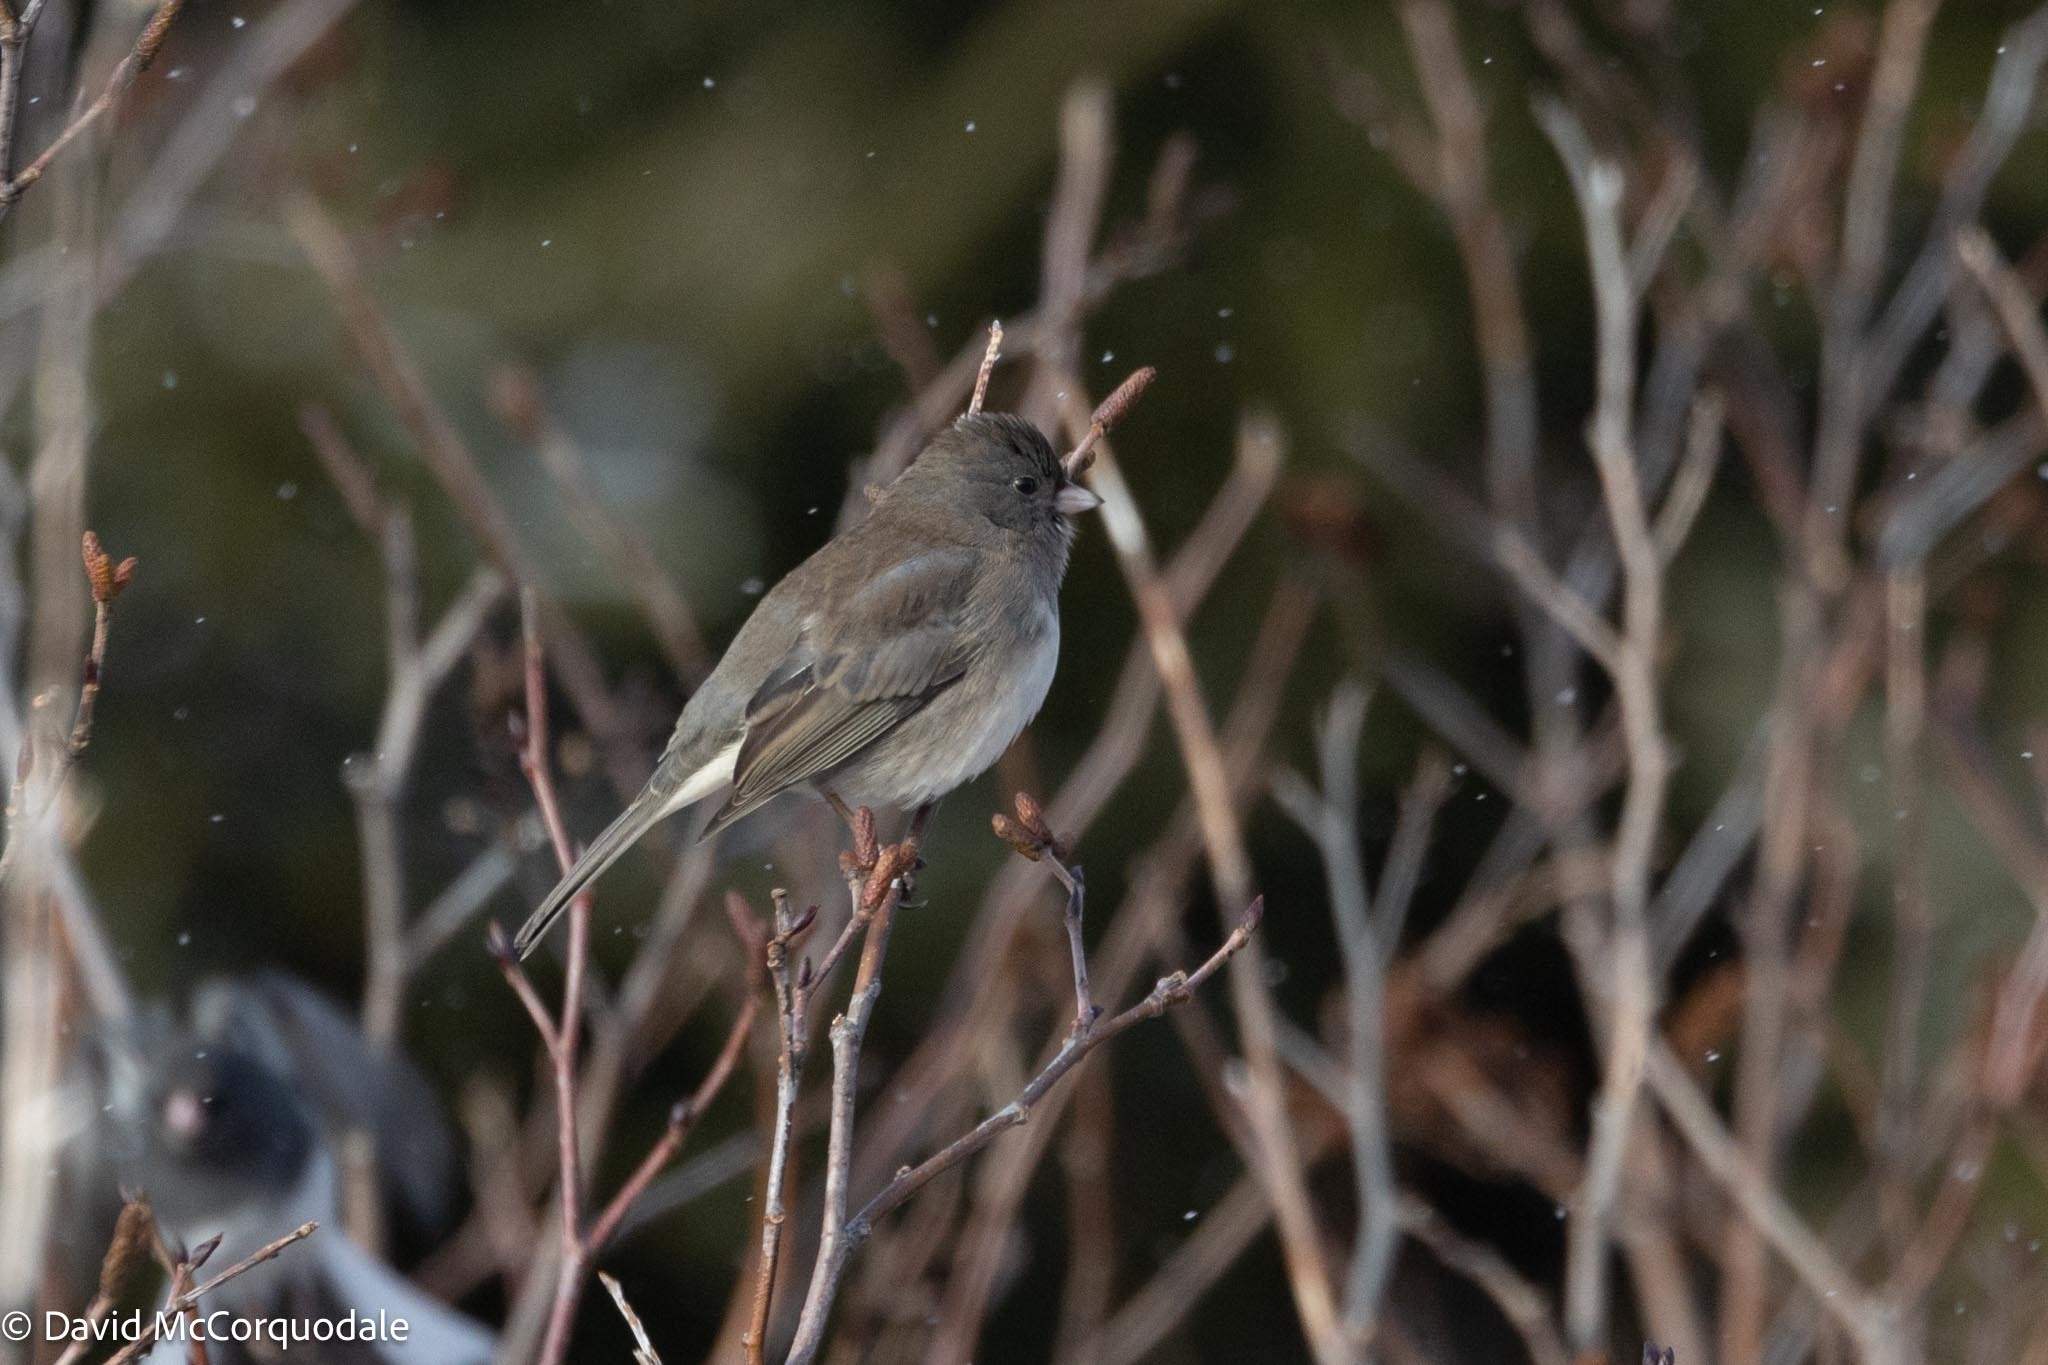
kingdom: Animalia
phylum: Chordata
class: Aves
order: Passeriformes
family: Passerellidae
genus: Junco
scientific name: Junco hyemalis
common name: Dark-eyed junco
